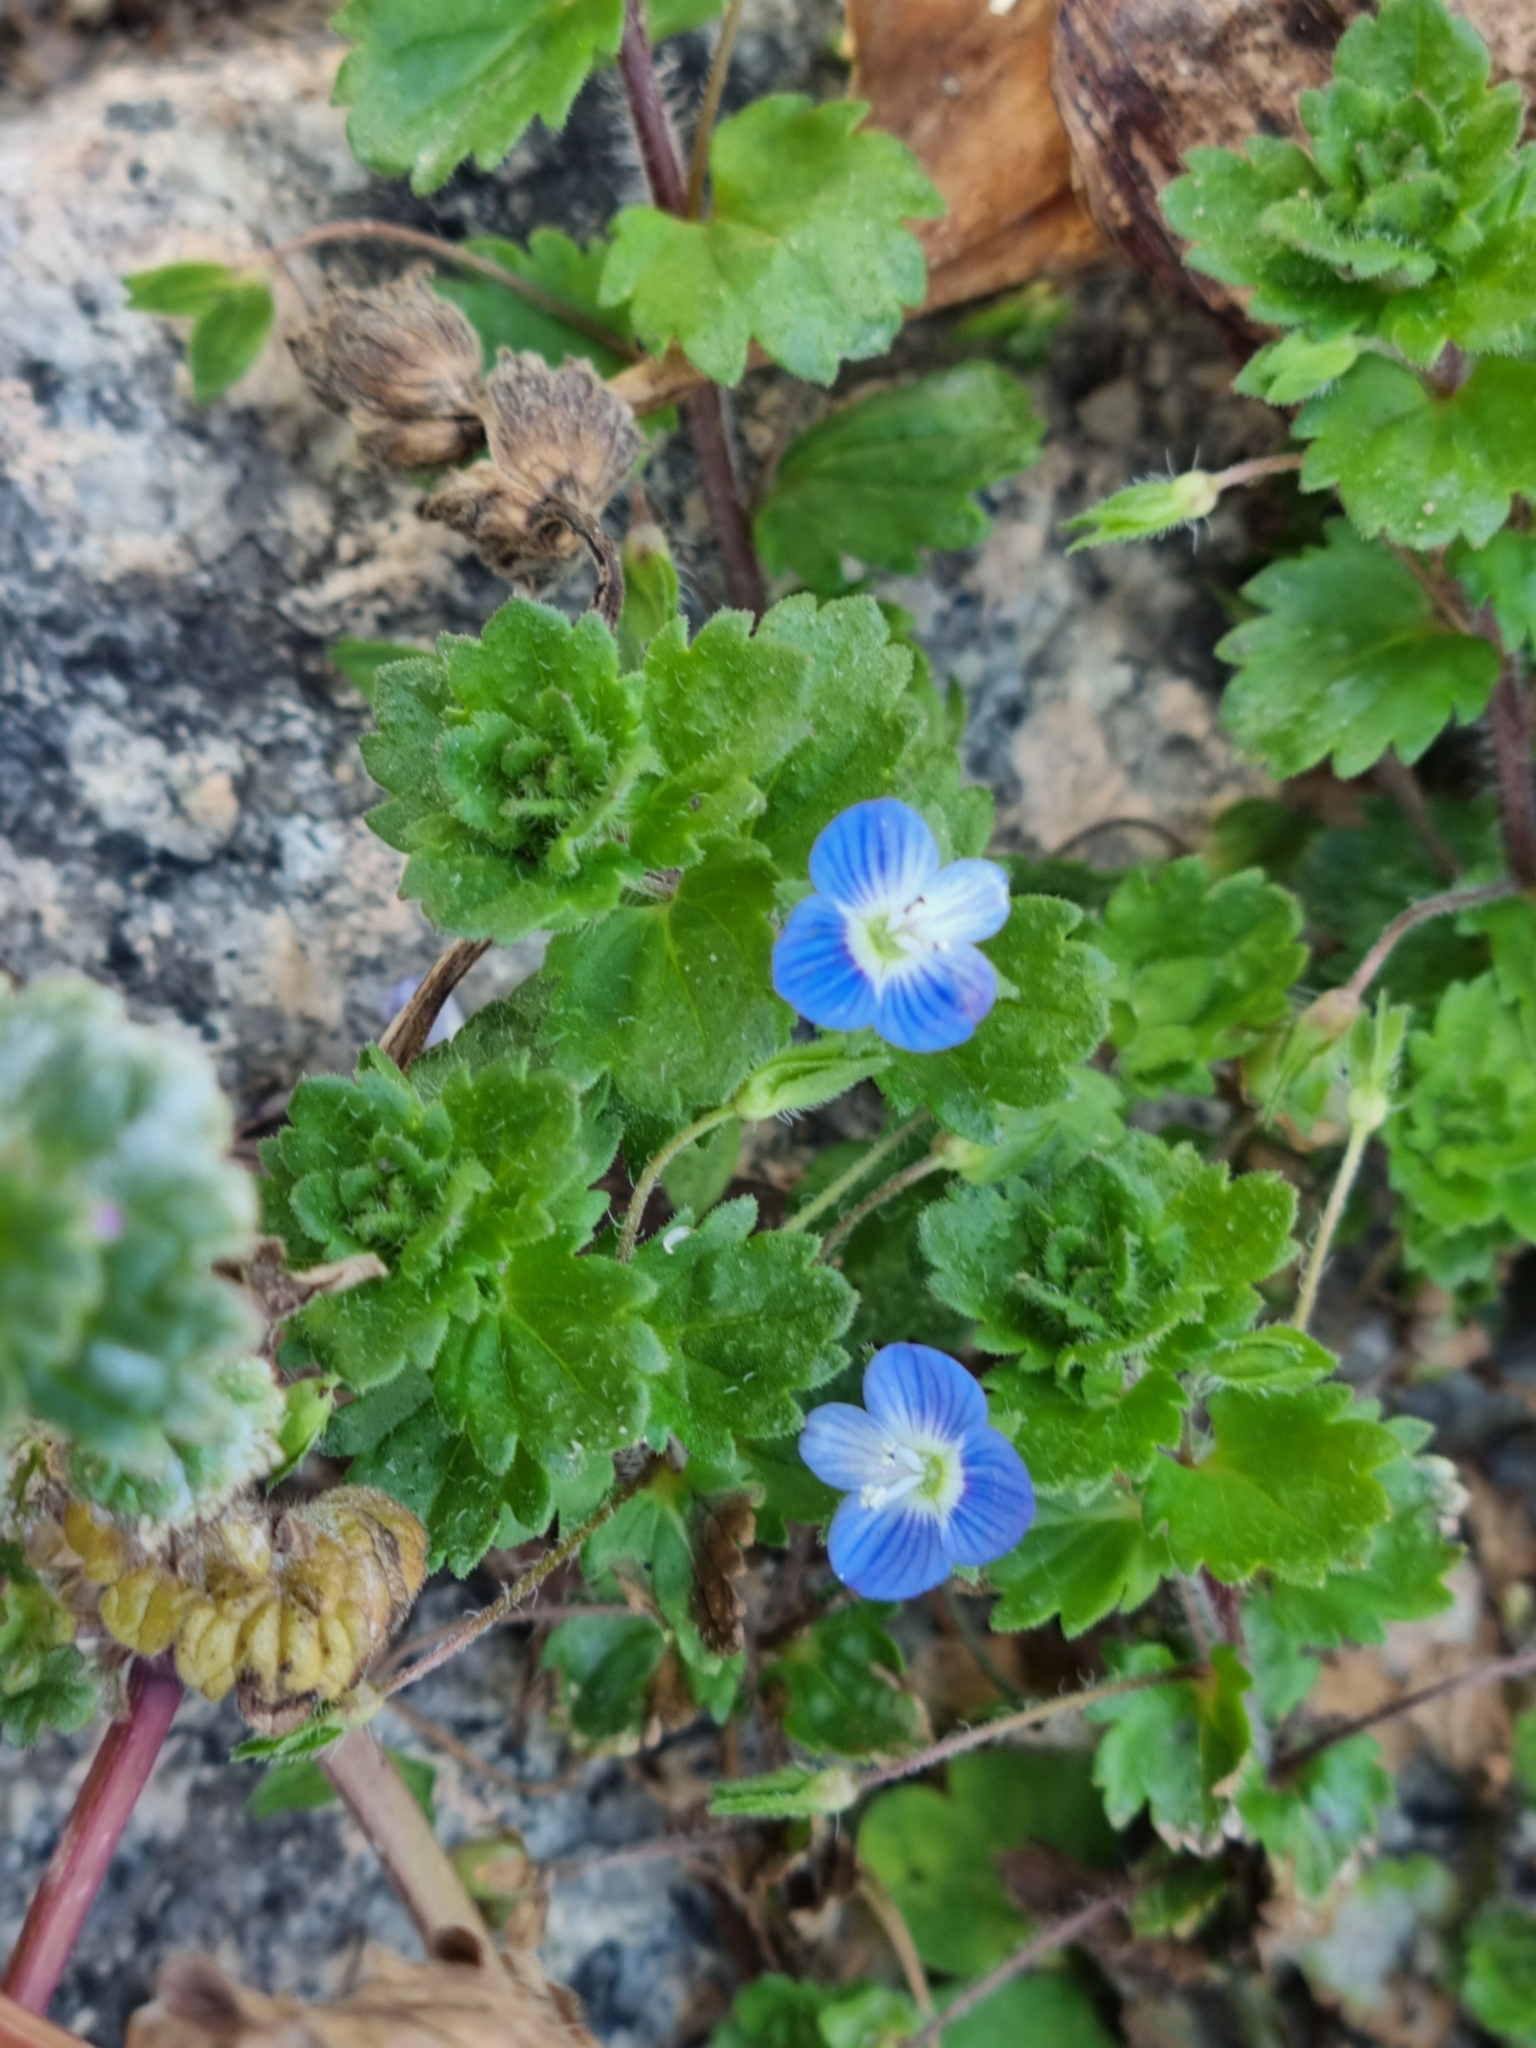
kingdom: Plantae
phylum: Tracheophyta
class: Magnoliopsida
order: Lamiales
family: Plantaginaceae
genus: Veronica
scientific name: Veronica persica
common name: Common field-speedwell
